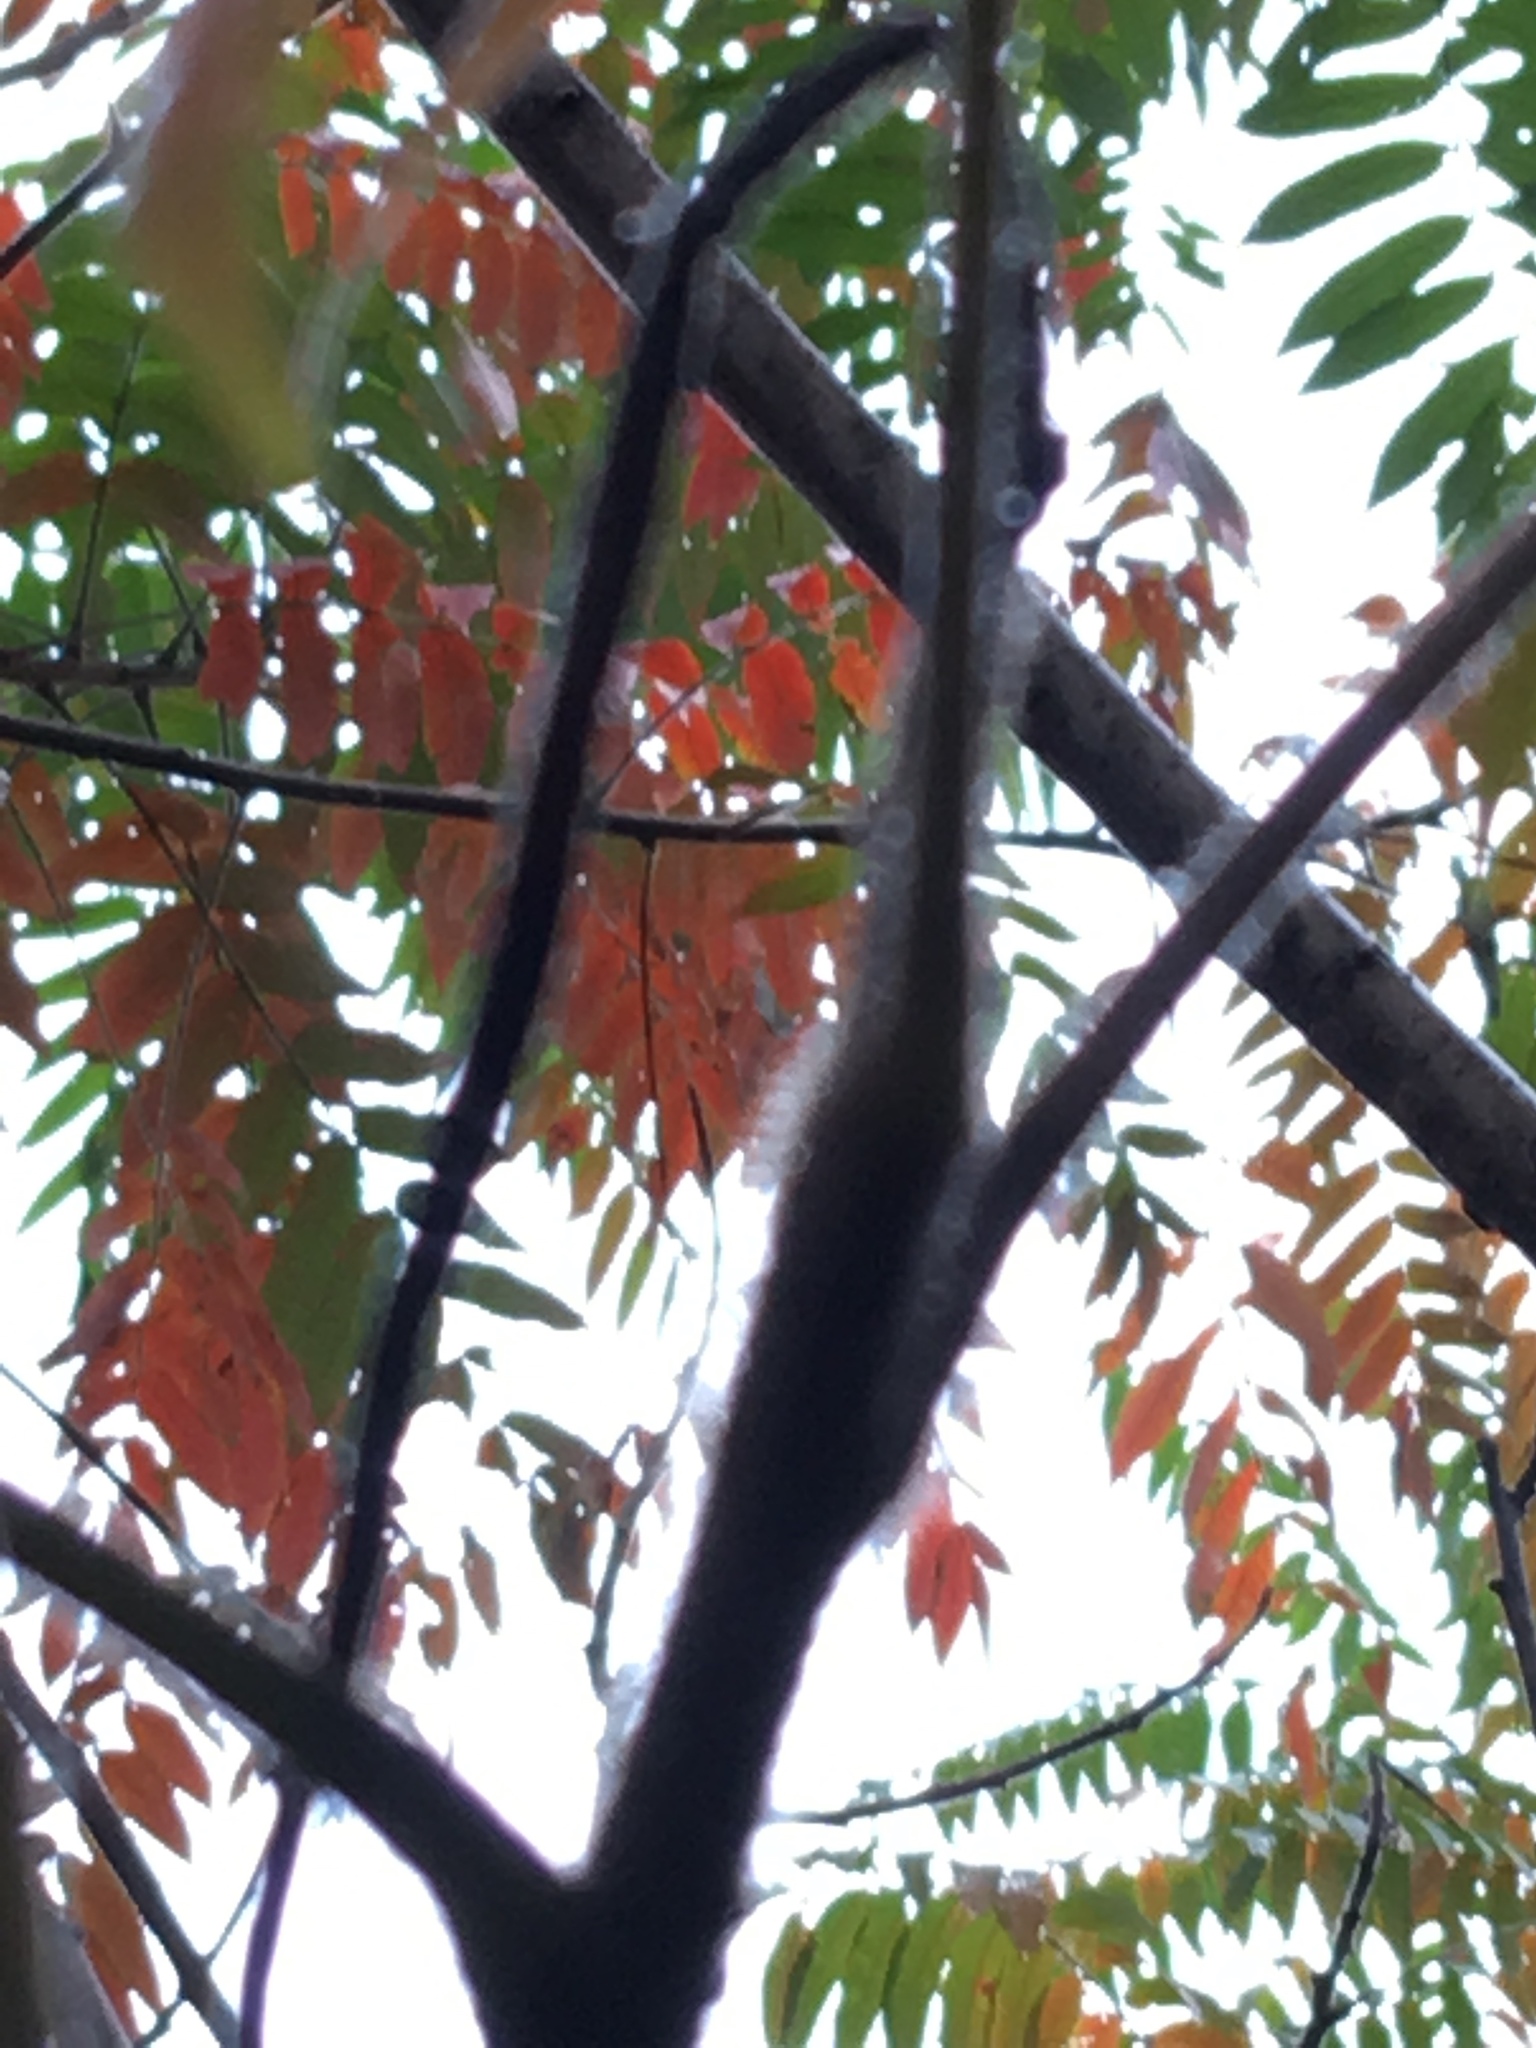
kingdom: Plantae
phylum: Tracheophyta
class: Magnoliopsida
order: Sapindales
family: Anacardiaceae
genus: Rhus
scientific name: Rhus typhina
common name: Staghorn sumac
